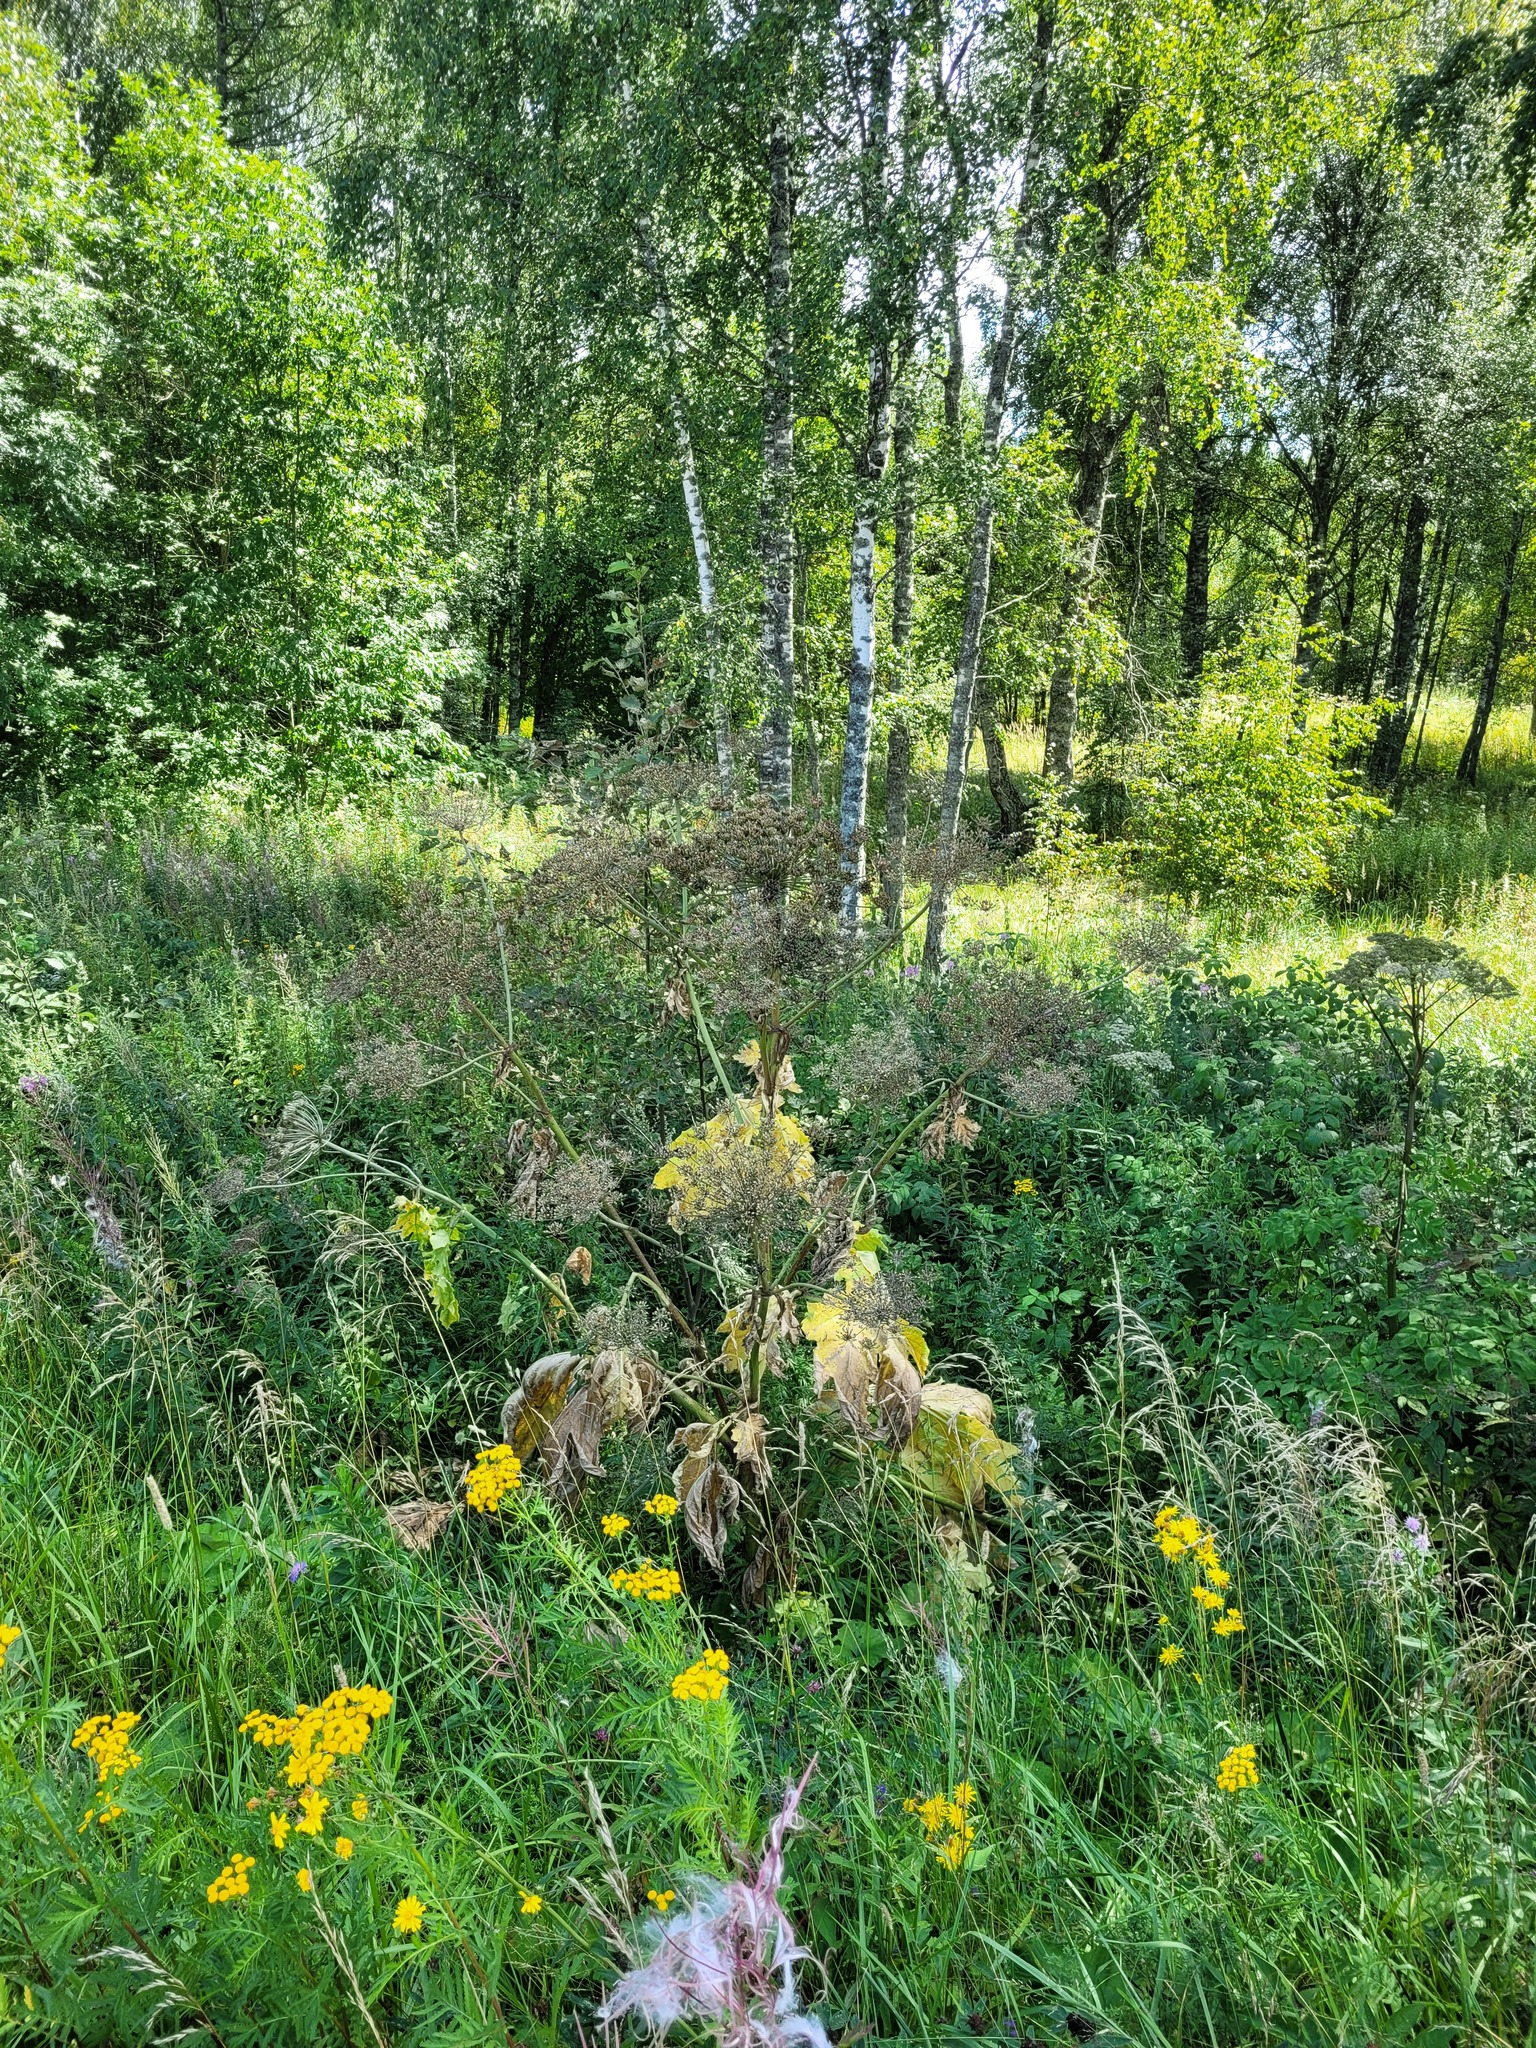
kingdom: Plantae
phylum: Tracheophyta
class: Magnoliopsida
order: Apiales
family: Apiaceae
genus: Heracleum
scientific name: Heracleum sosnowskyi
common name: Sosnowsky's hogweed
